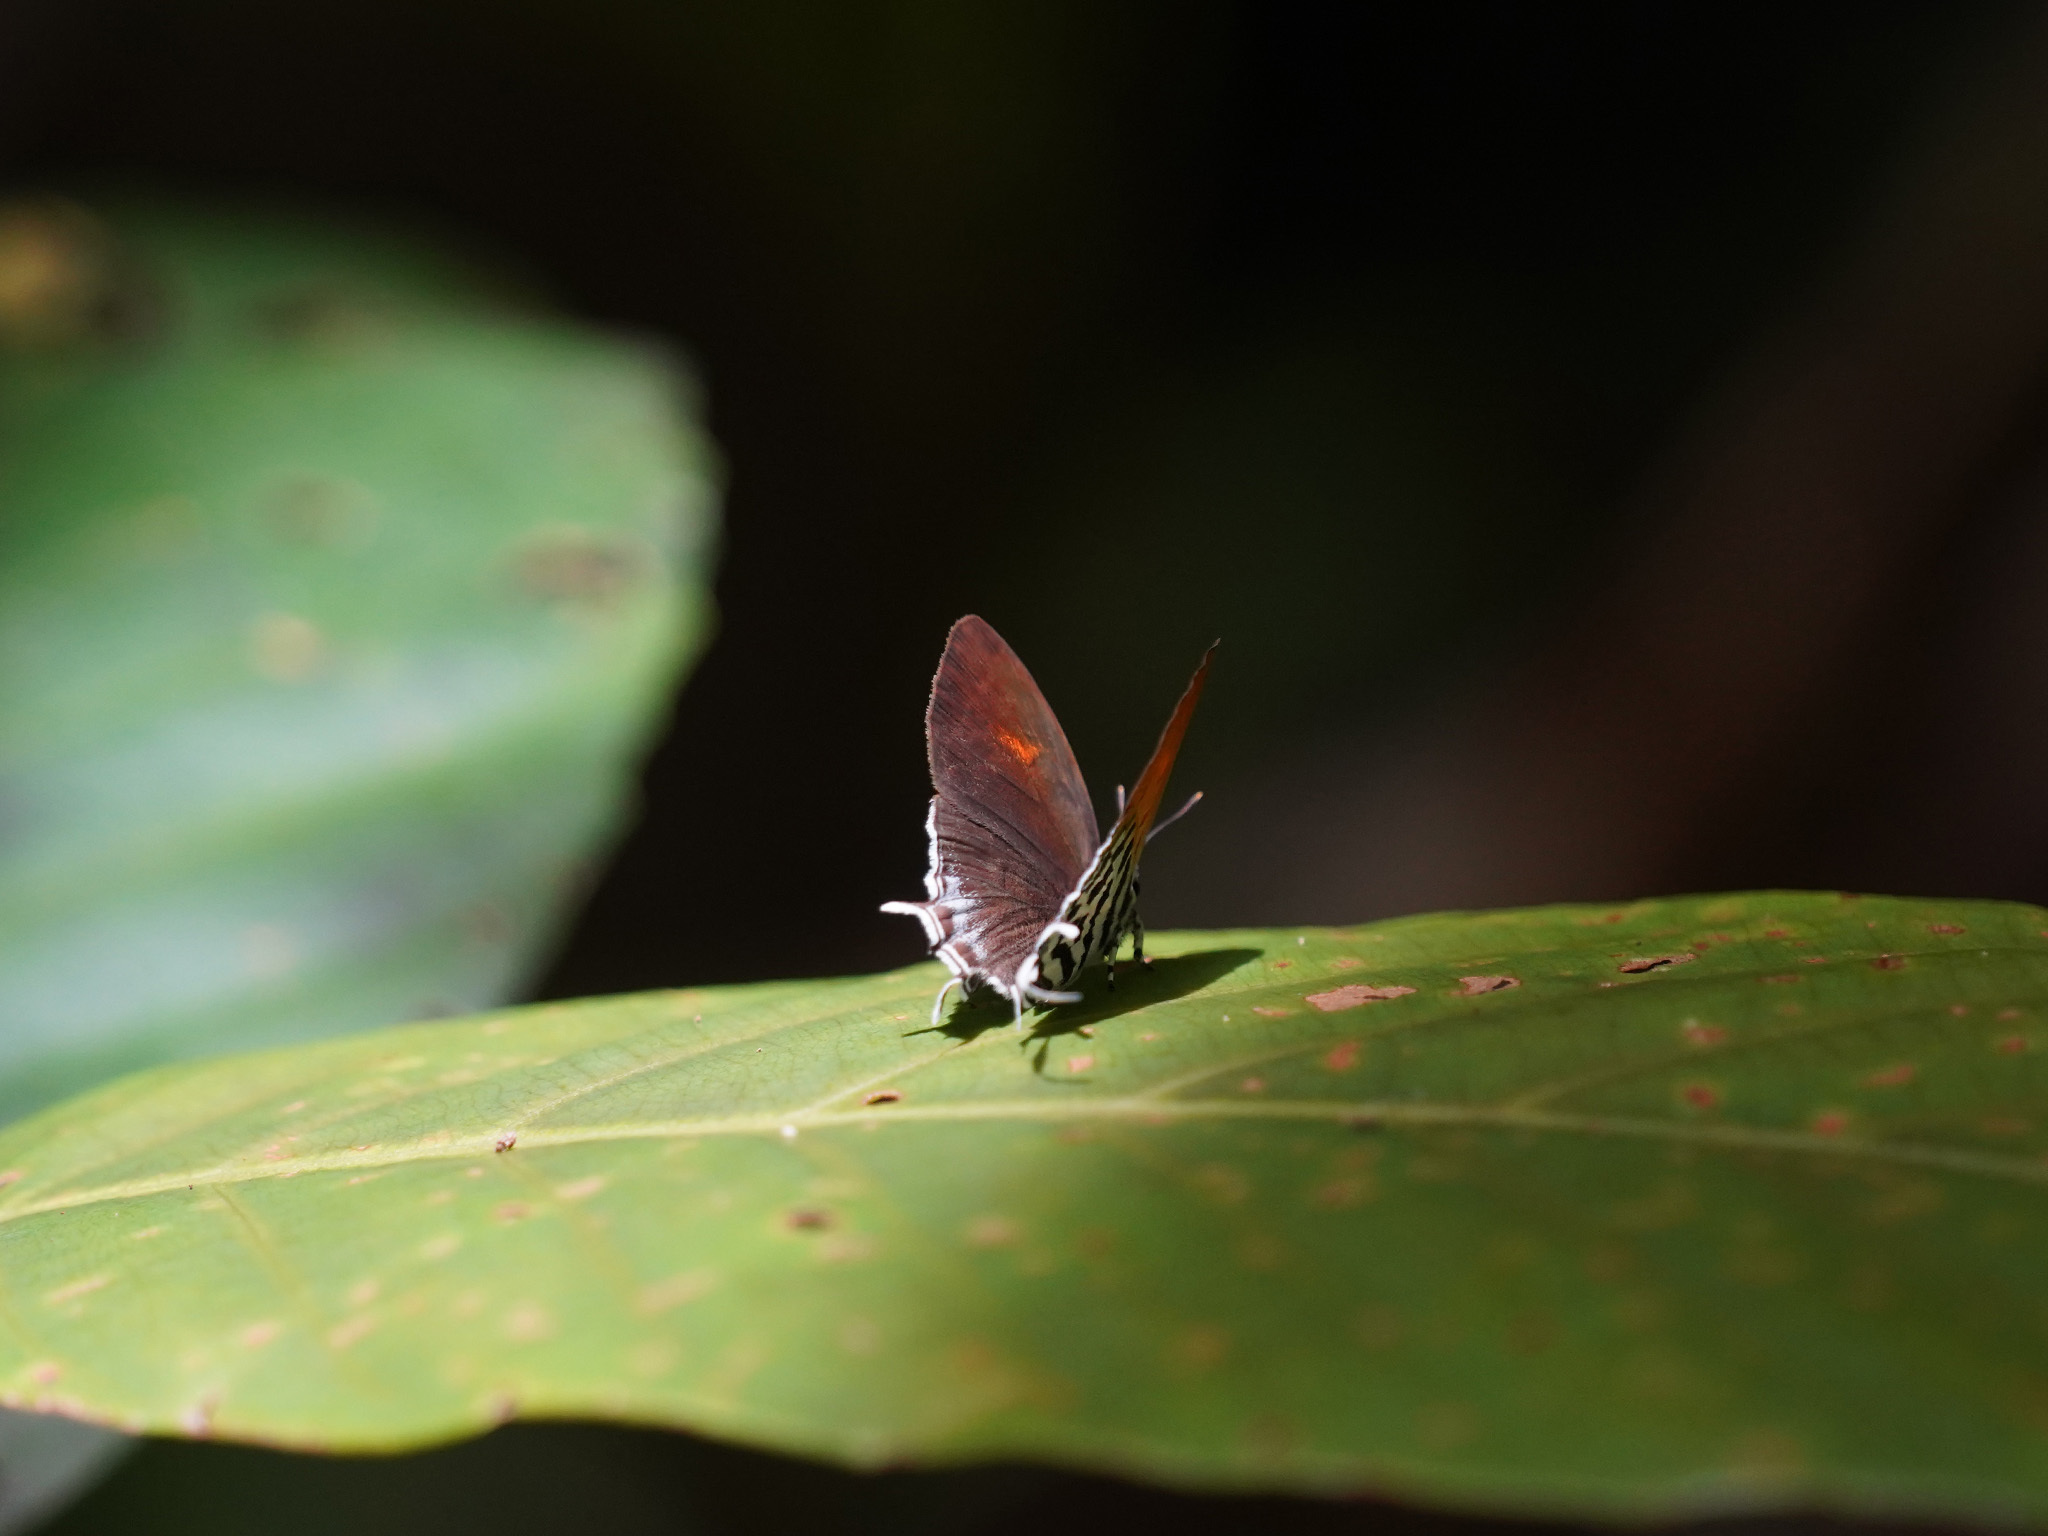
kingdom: Animalia
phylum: Arthropoda
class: Insecta
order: Lepidoptera
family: Lycaenidae
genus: Drupadia
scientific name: Drupadia ravindra
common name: Common posy
